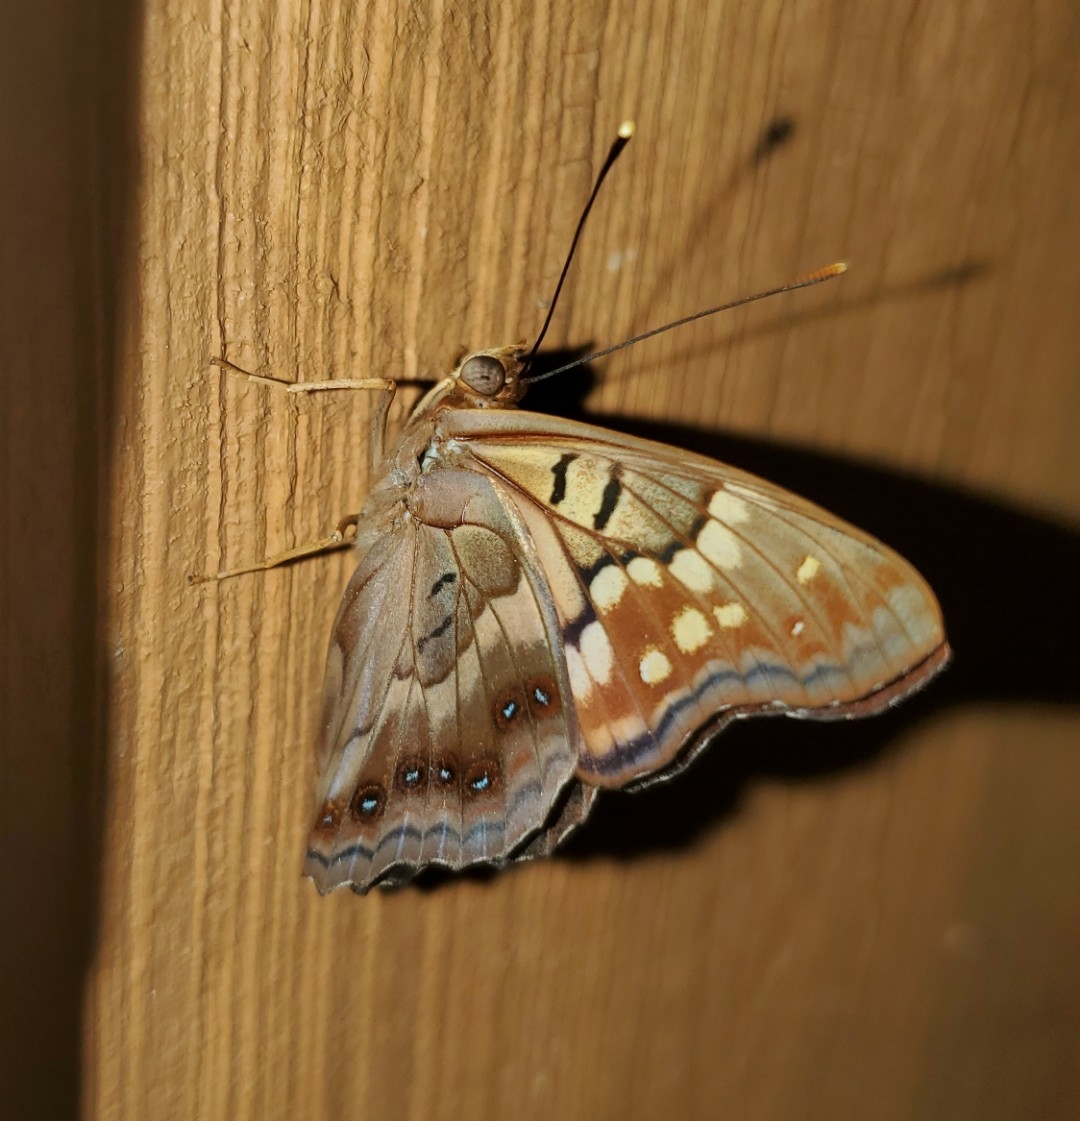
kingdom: Animalia
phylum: Arthropoda
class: Insecta
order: Lepidoptera
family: Nymphalidae
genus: Asterocampa
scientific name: Asterocampa clyton
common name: Tawny emperor
